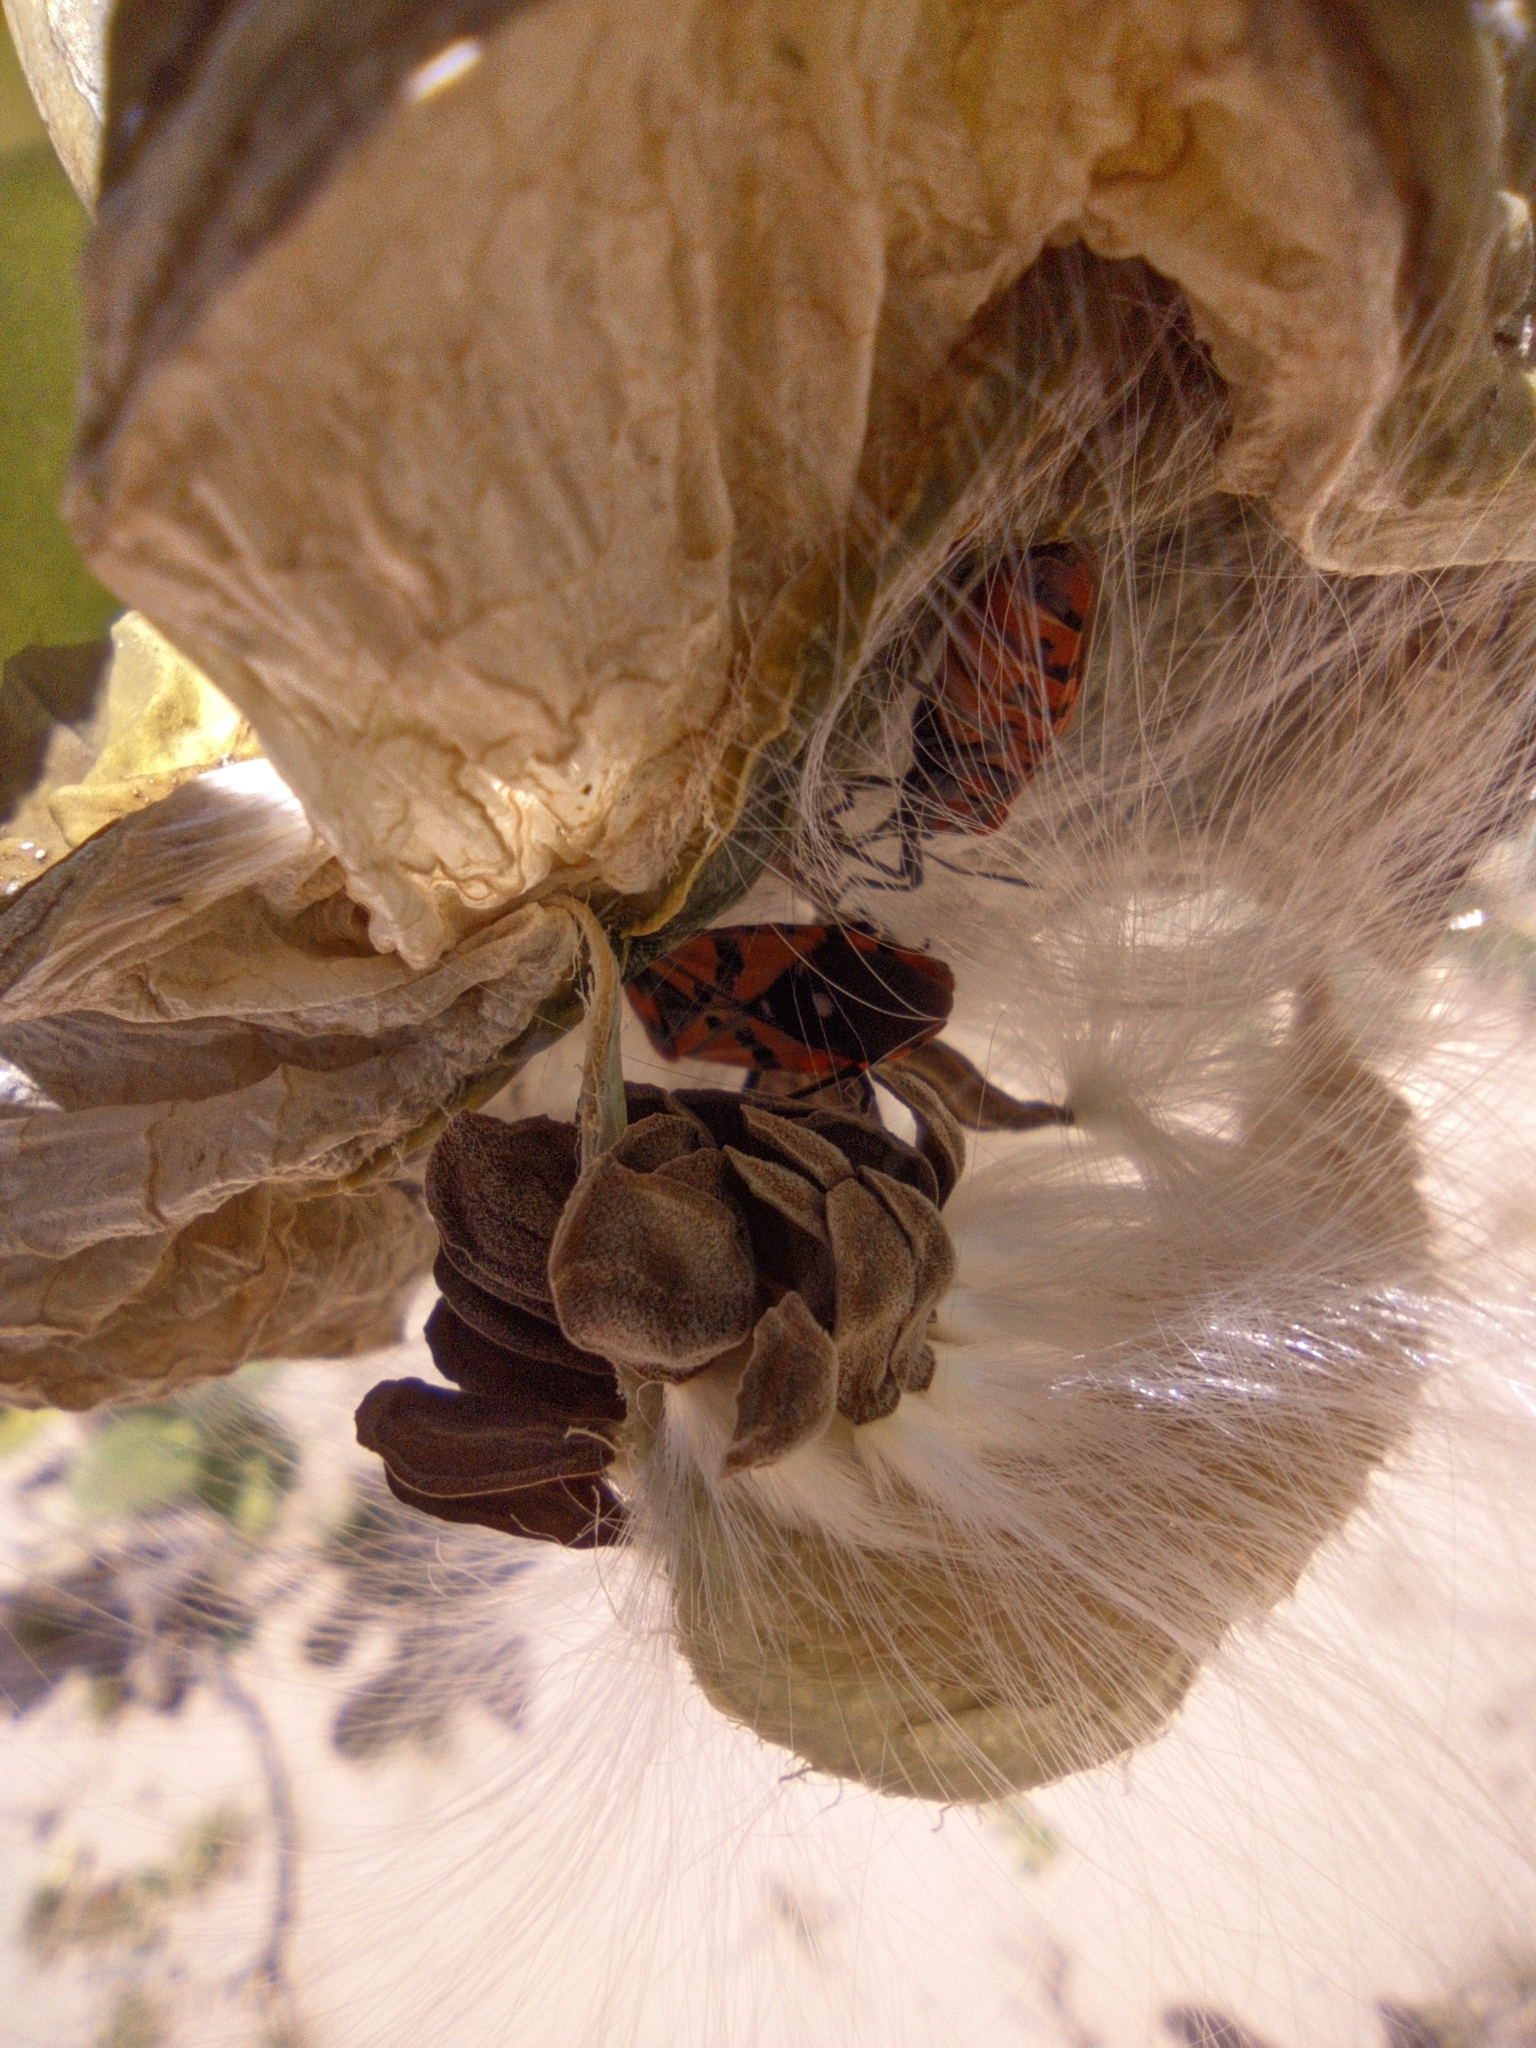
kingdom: Animalia
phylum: Arthropoda
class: Insecta
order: Hemiptera
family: Lygaeidae
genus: Spilostethus
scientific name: Spilostethus pandurus
